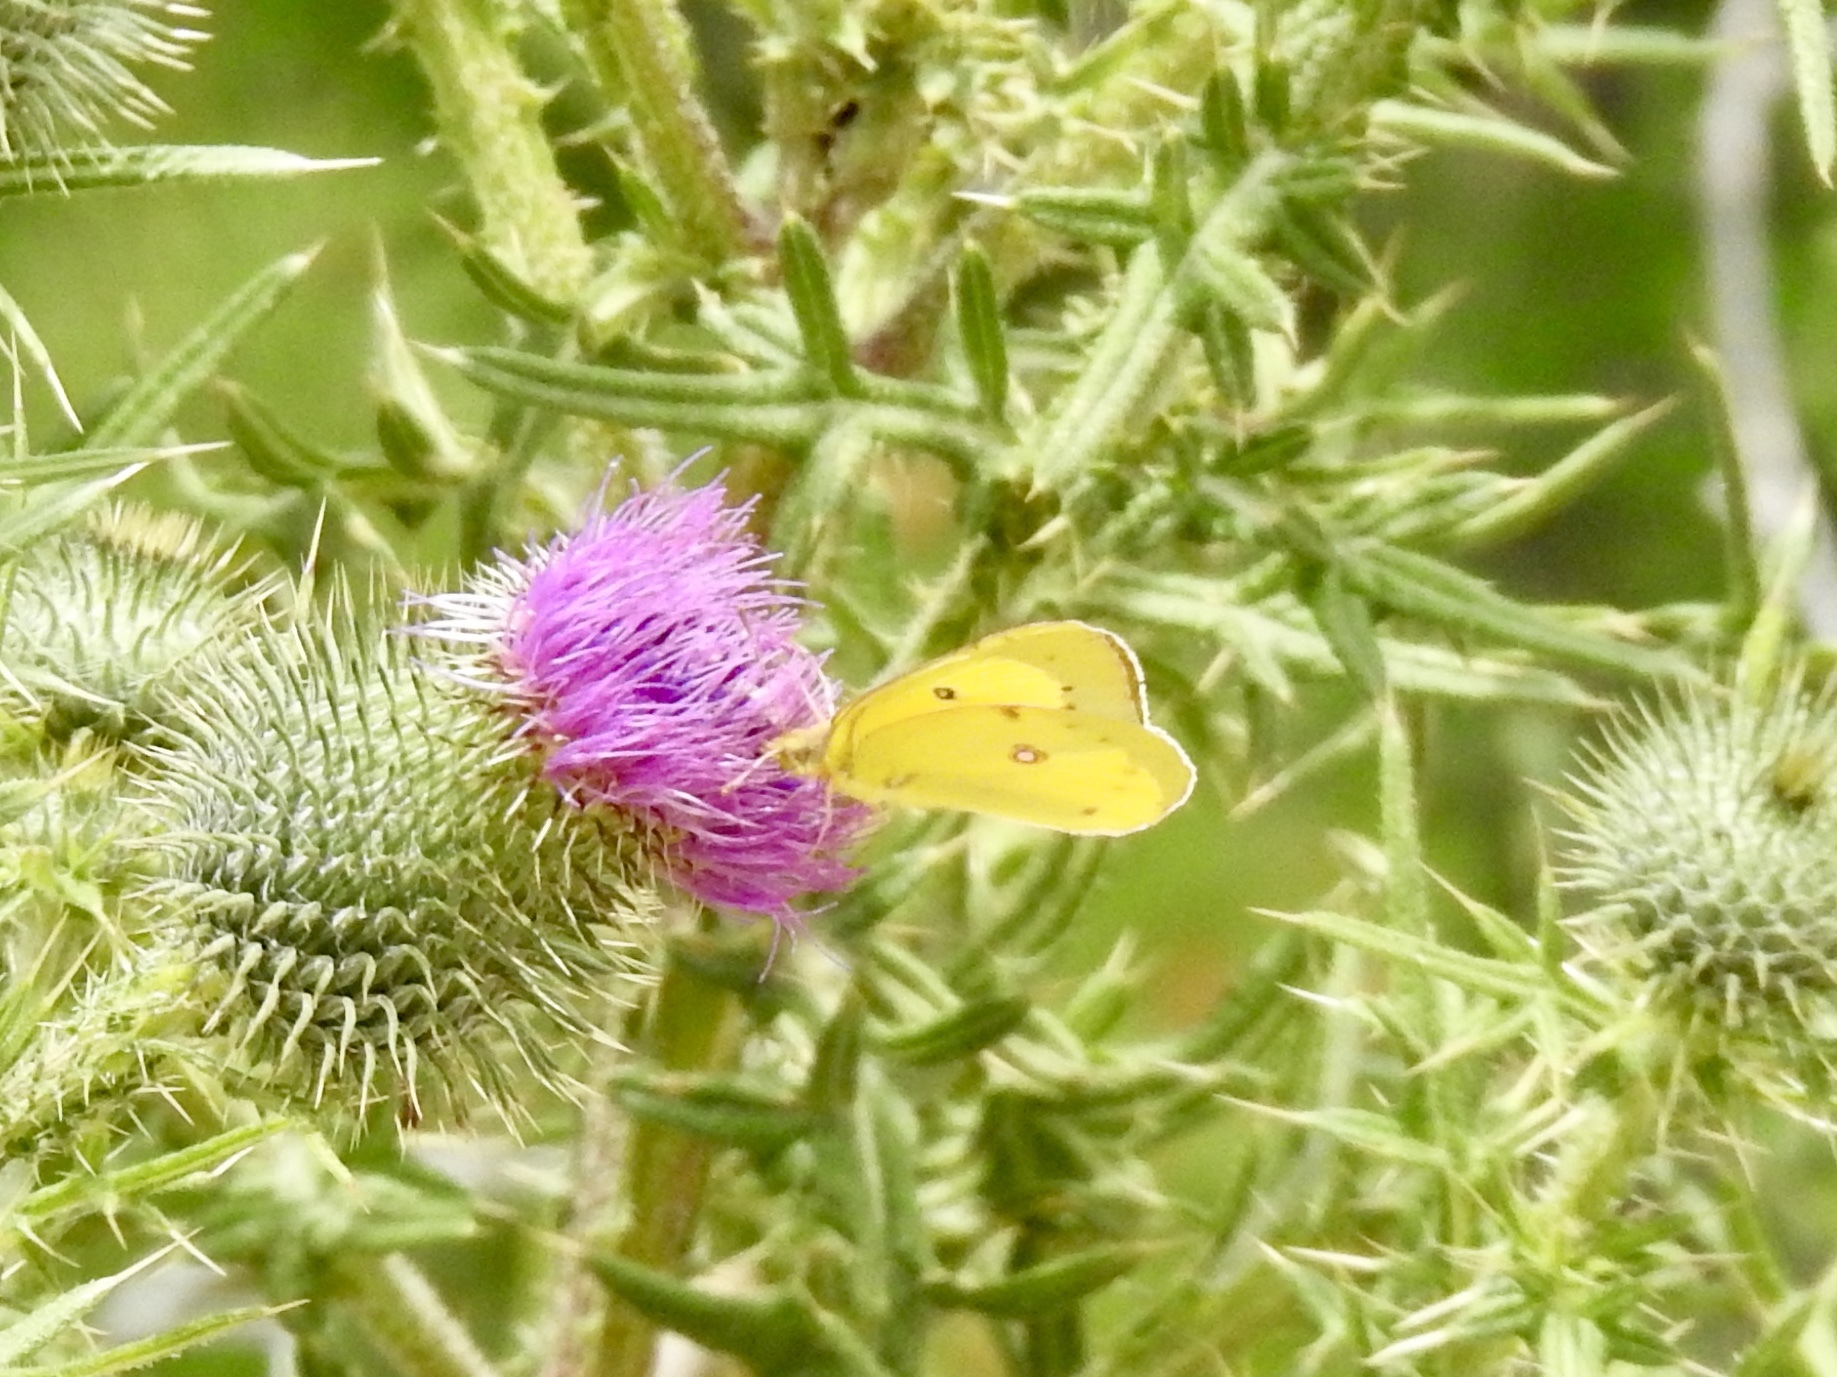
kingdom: Animalia
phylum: Arthropoda
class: Insecta
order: Lepidoptera
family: Pieridae
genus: Colias
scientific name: Colias eurytheme
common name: Alfalfa butterfly
